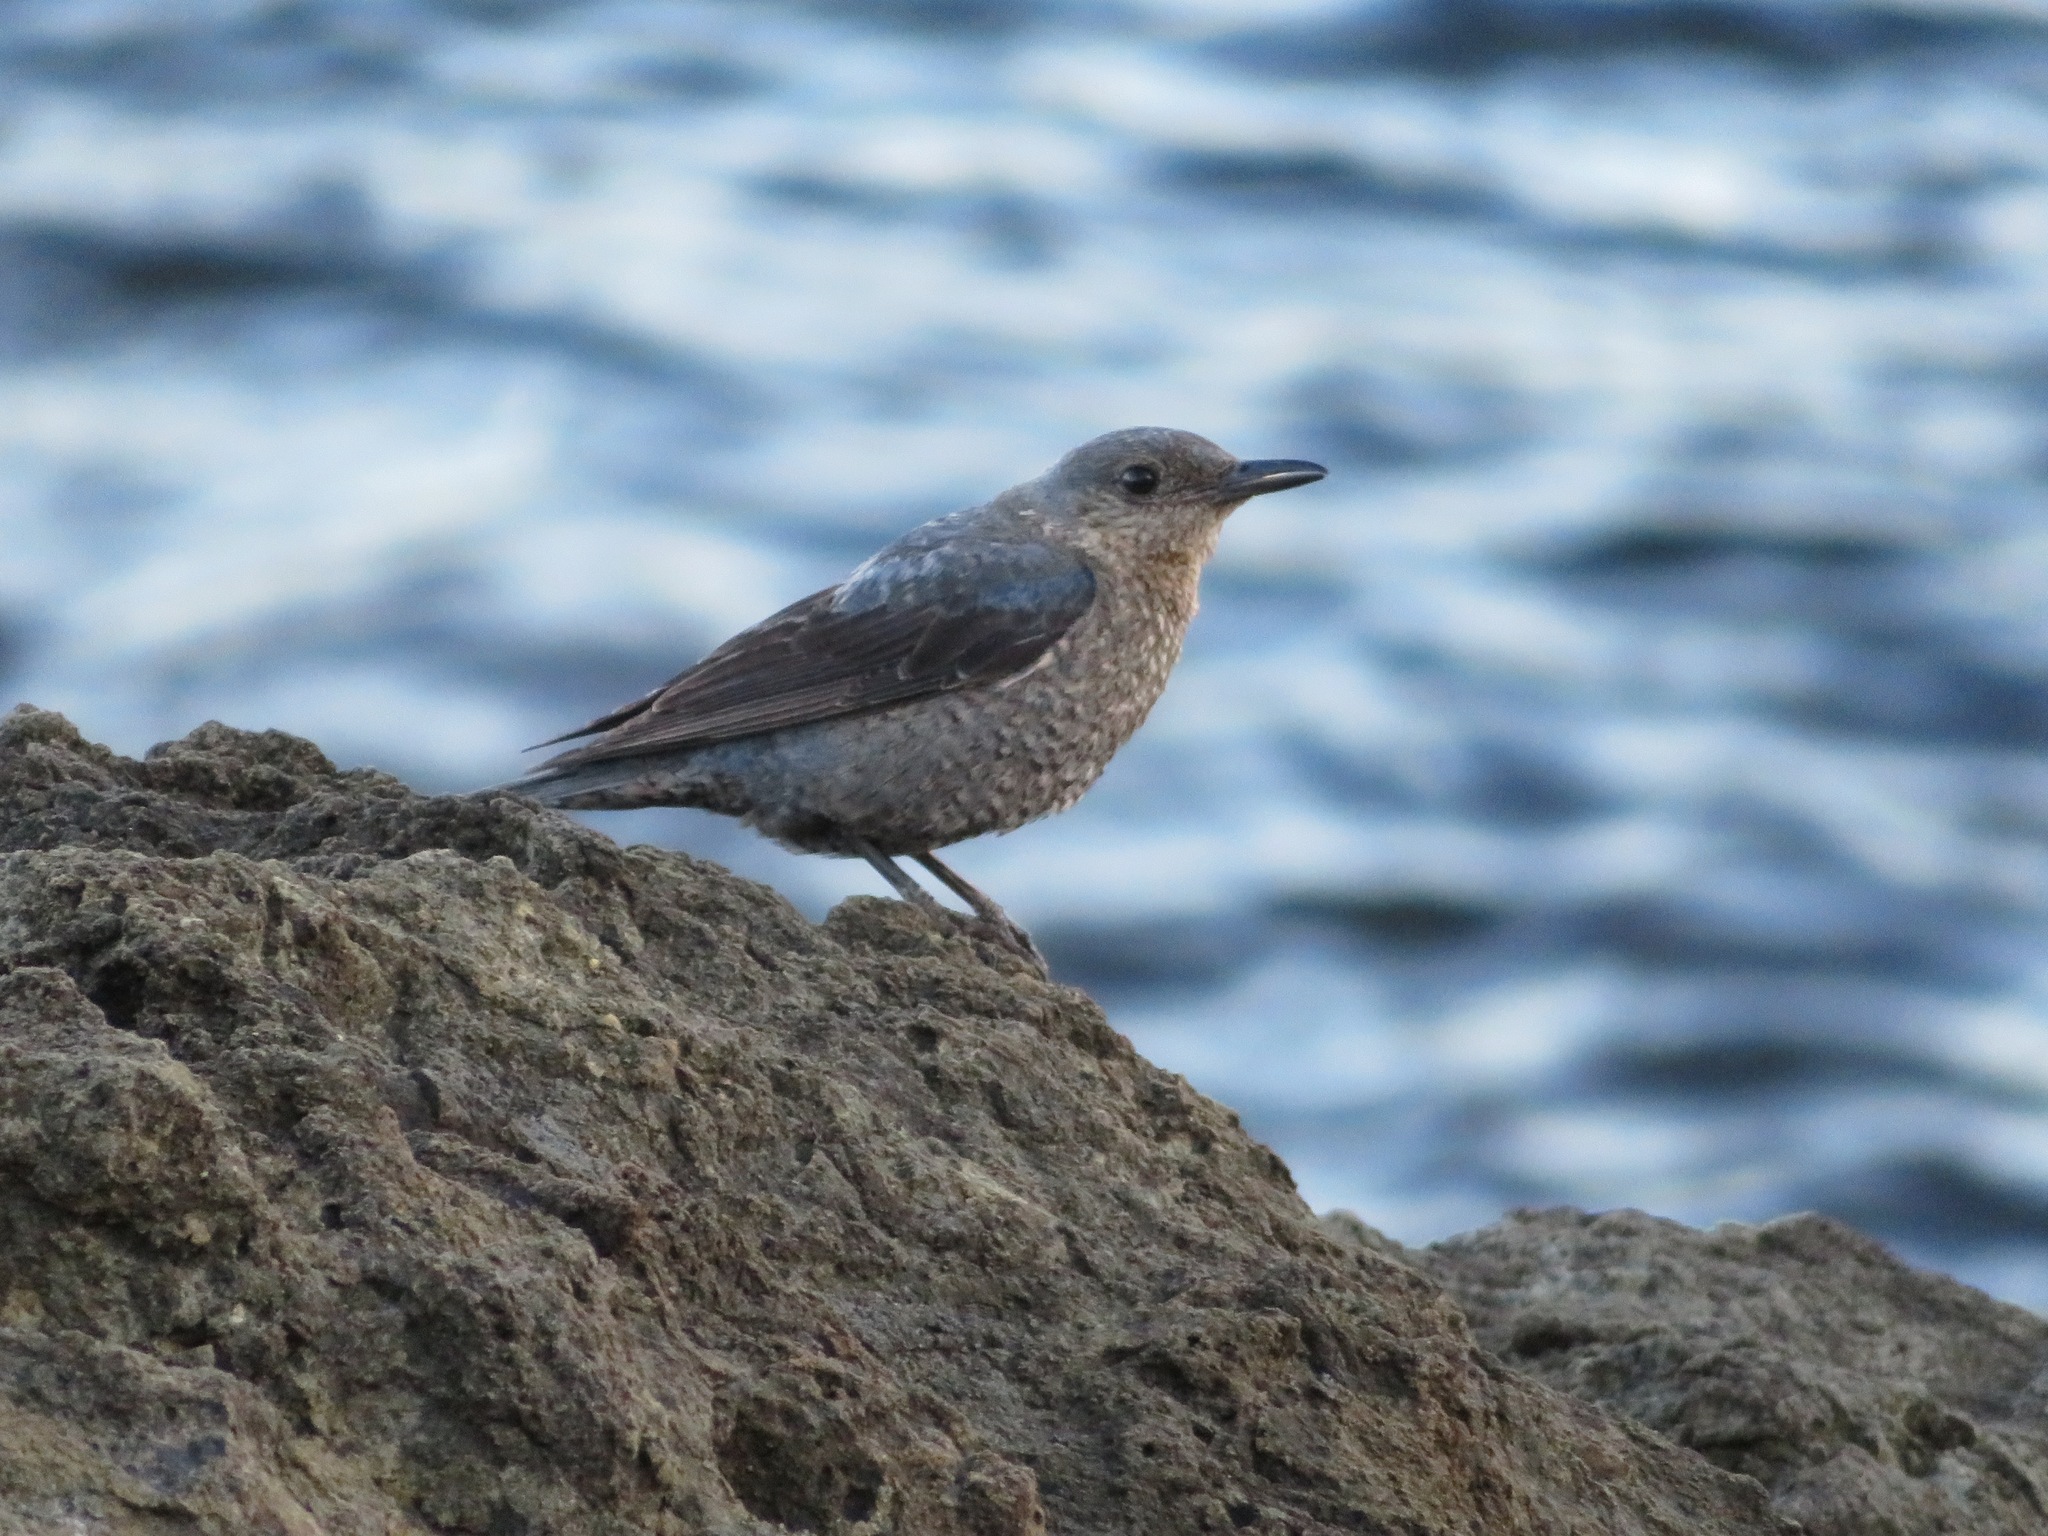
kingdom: Animalia
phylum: Chordata
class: Aves
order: Passeriformes
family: Muscicapidae
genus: Monticola
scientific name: Monticola solitarius
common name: Blue rock thrush
